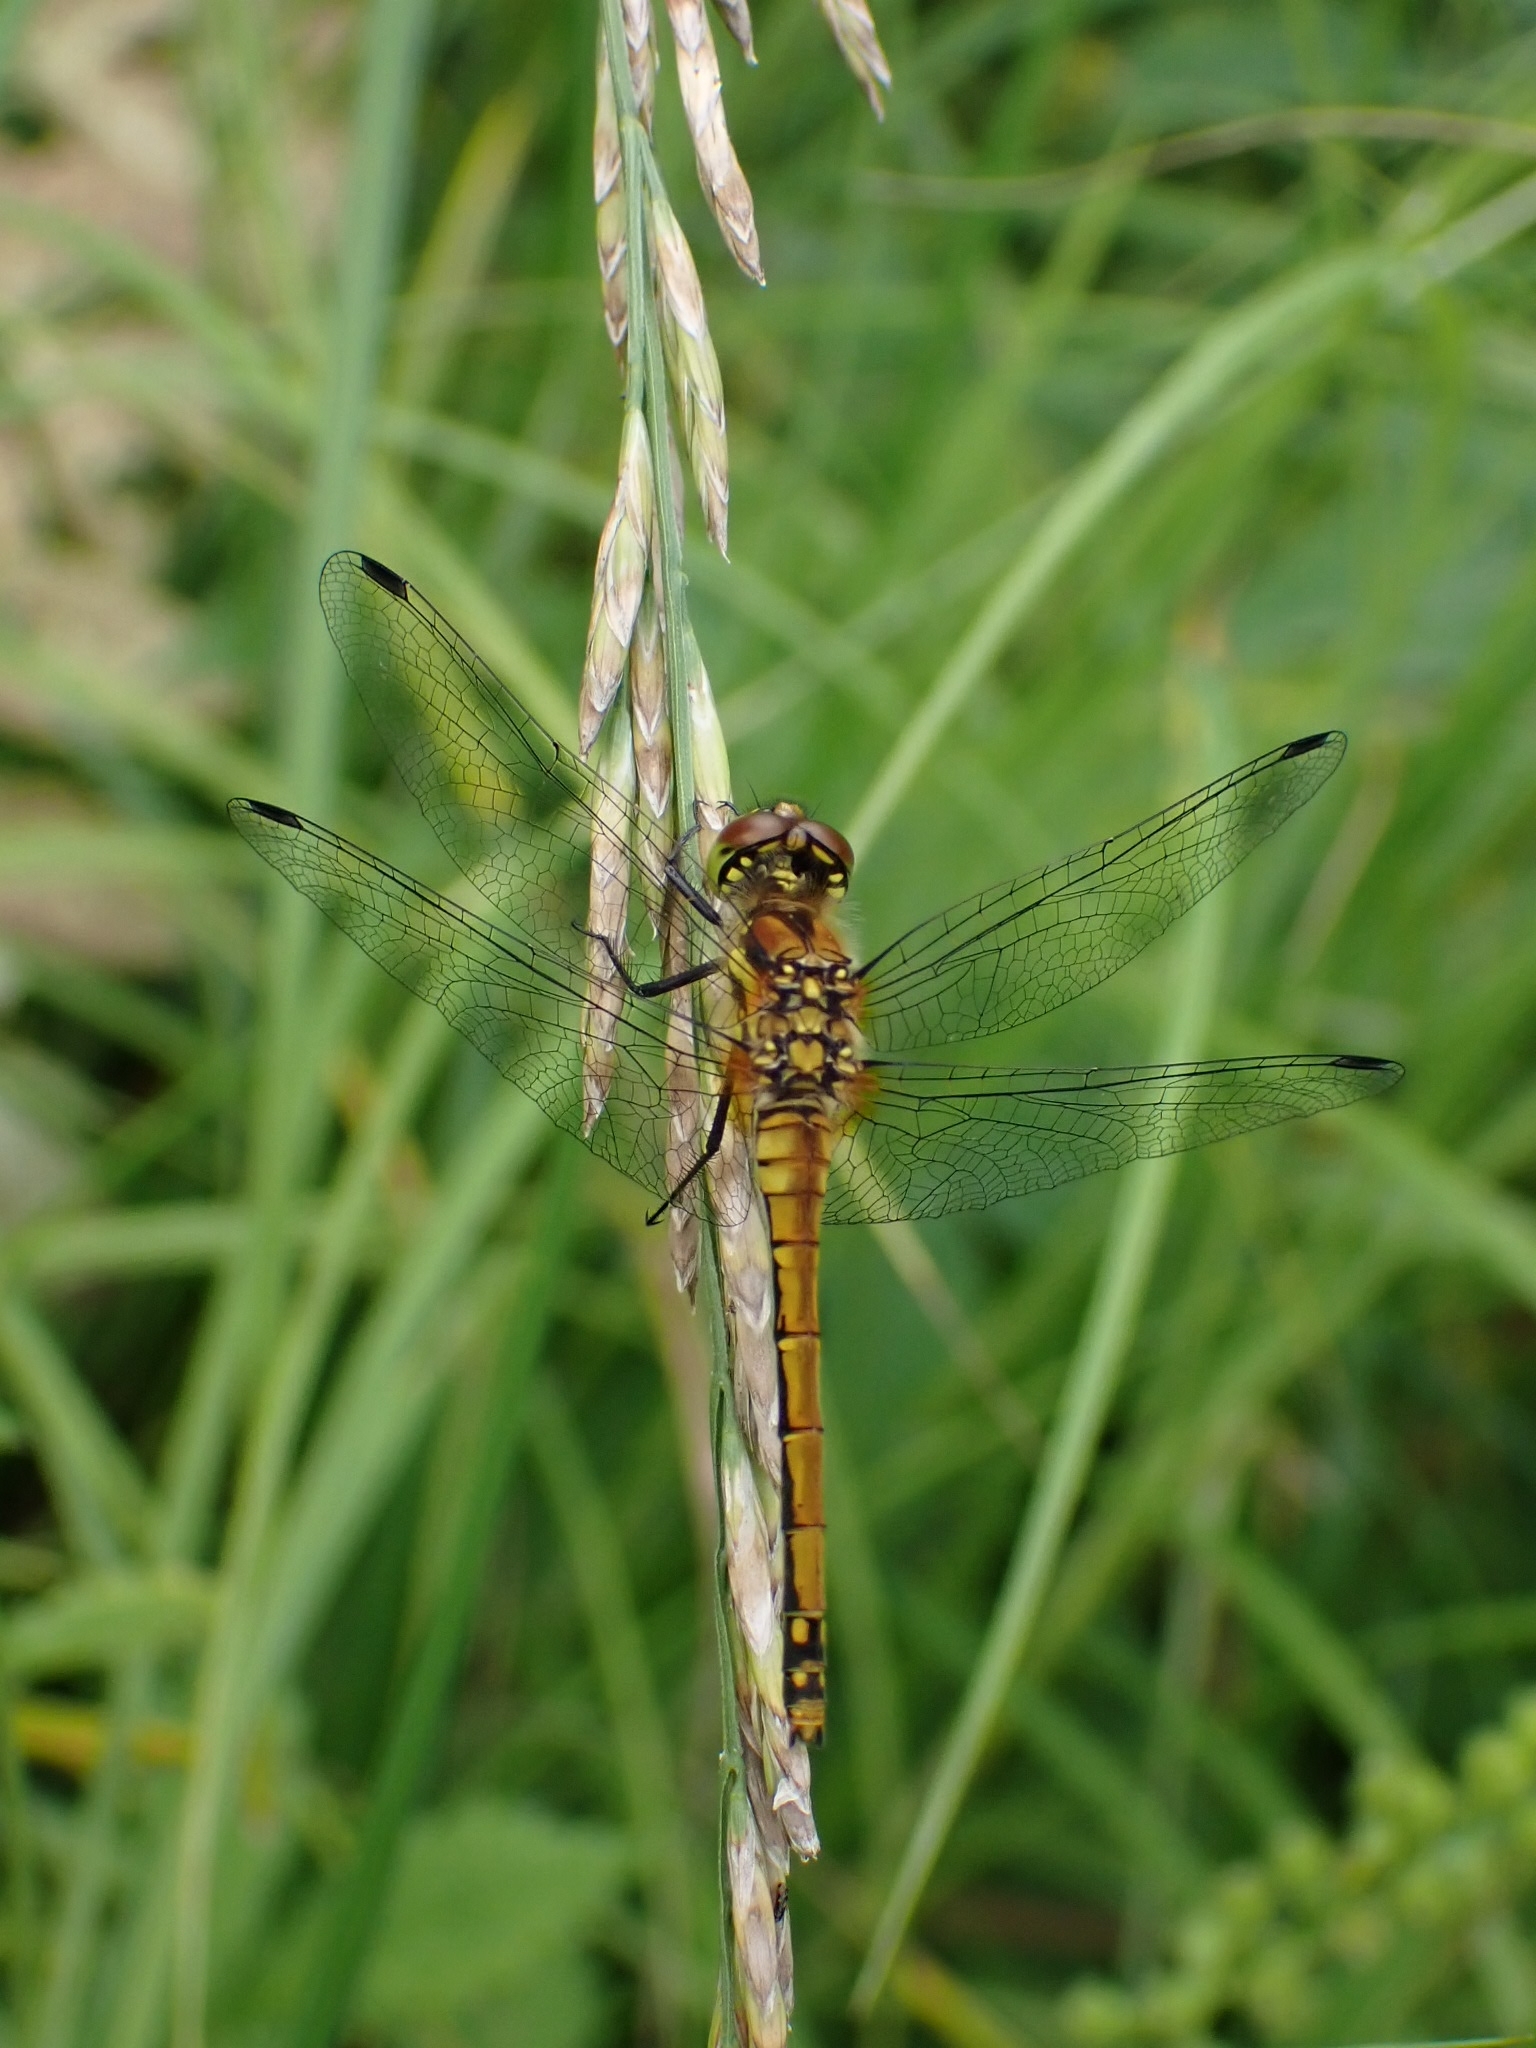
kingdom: Animalia
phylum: Arthropoda
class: Insecta
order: Odonata
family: Libellulidae
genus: Sympetrum
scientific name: Sympetrum danae
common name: Black darter
